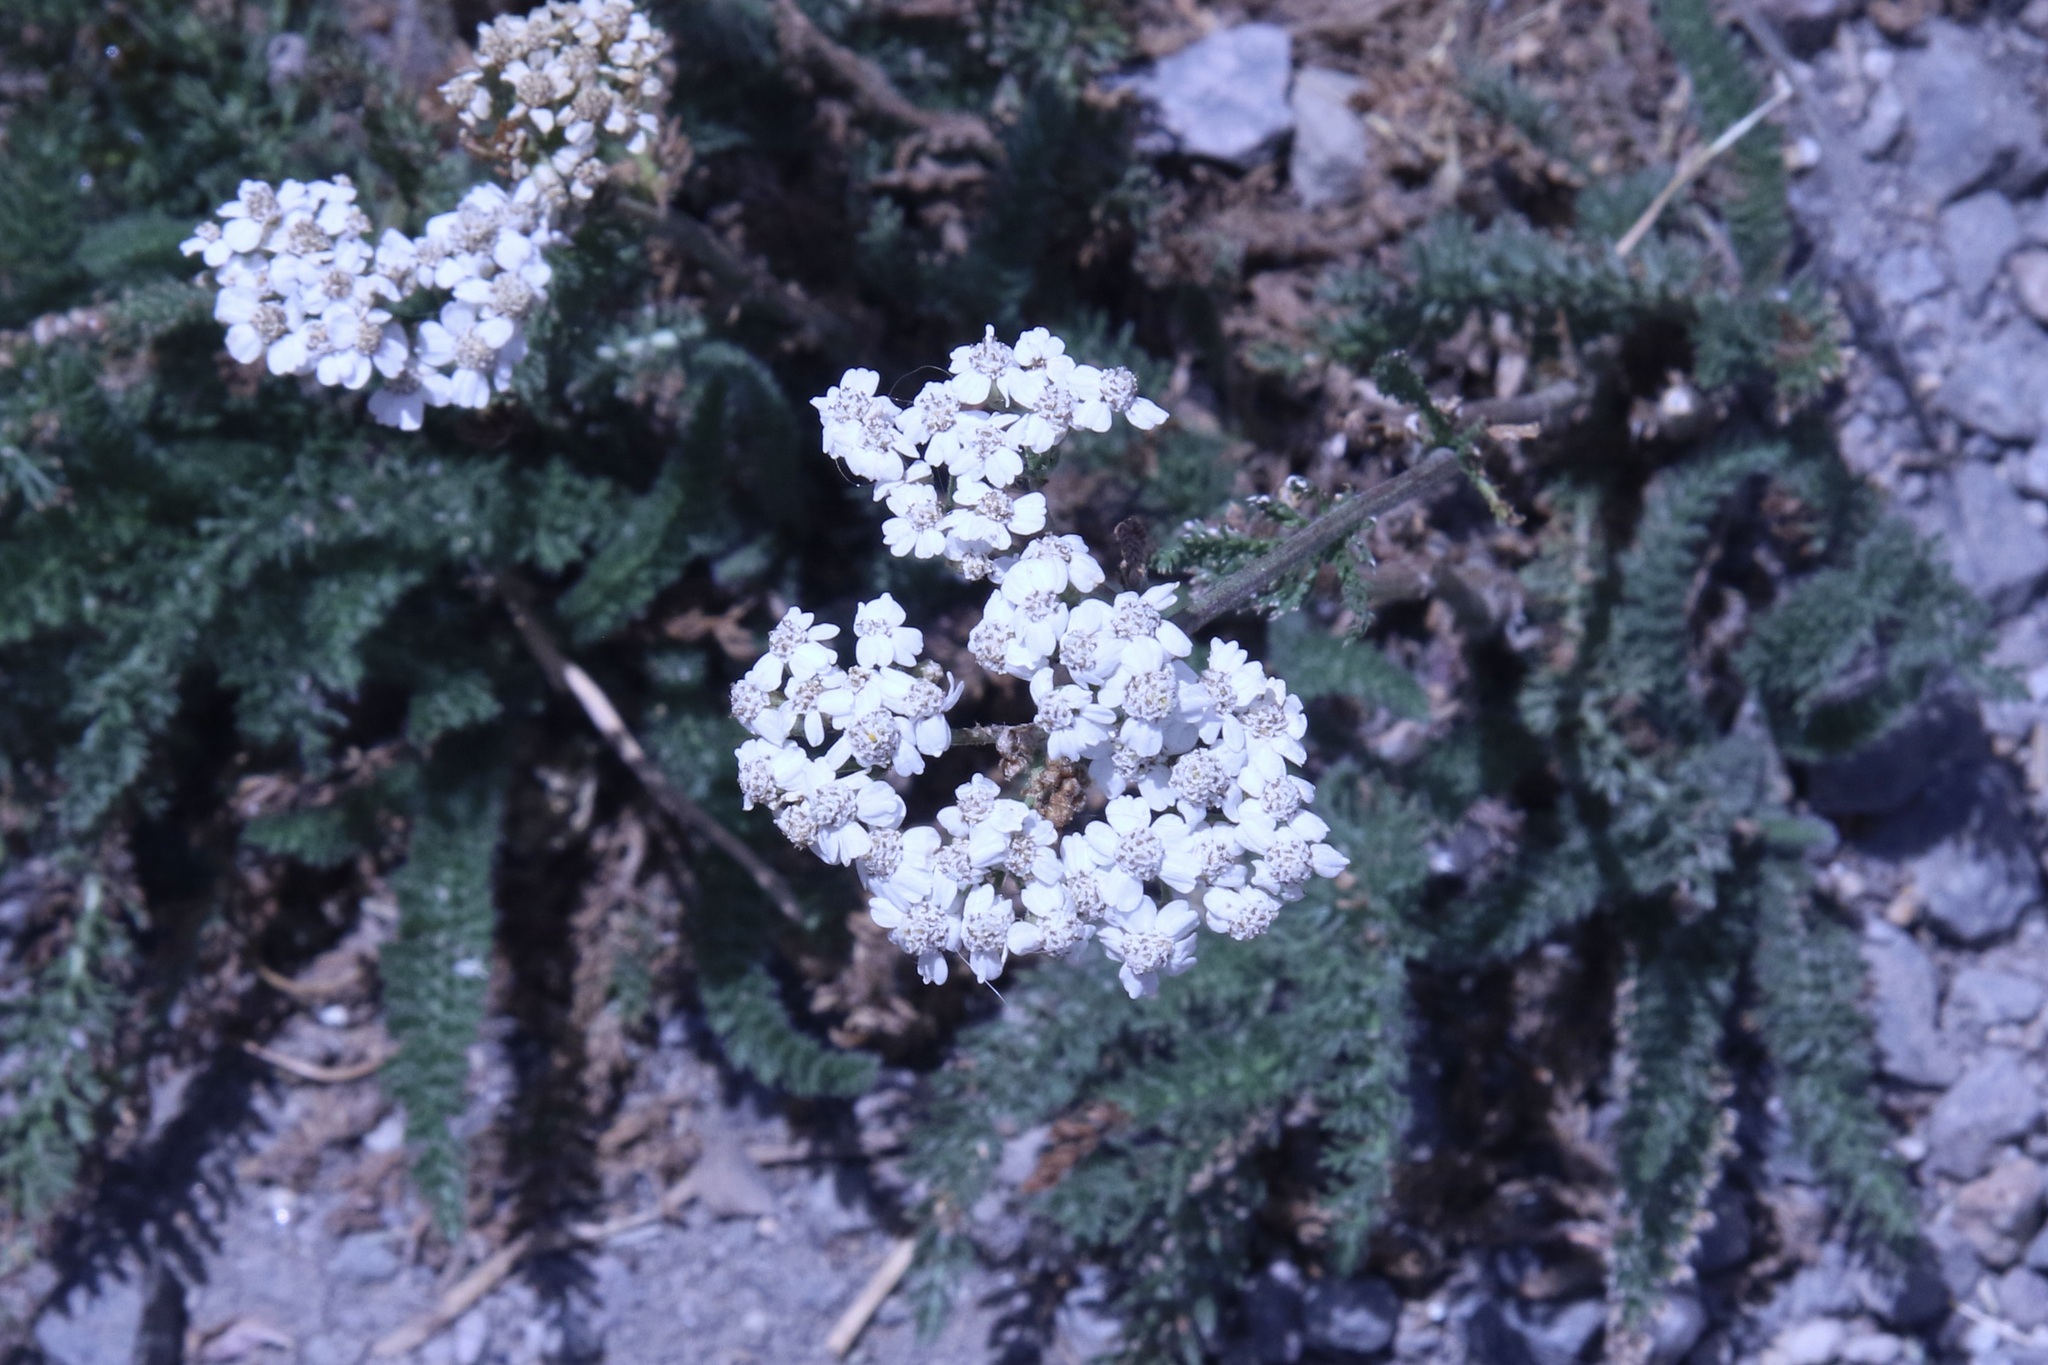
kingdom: Plantae
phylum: Tracheophyta
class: Magnoliopsida
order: Asterales
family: Asteraceae
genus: Achillea
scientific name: Achillea millefolium
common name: Yarrow
